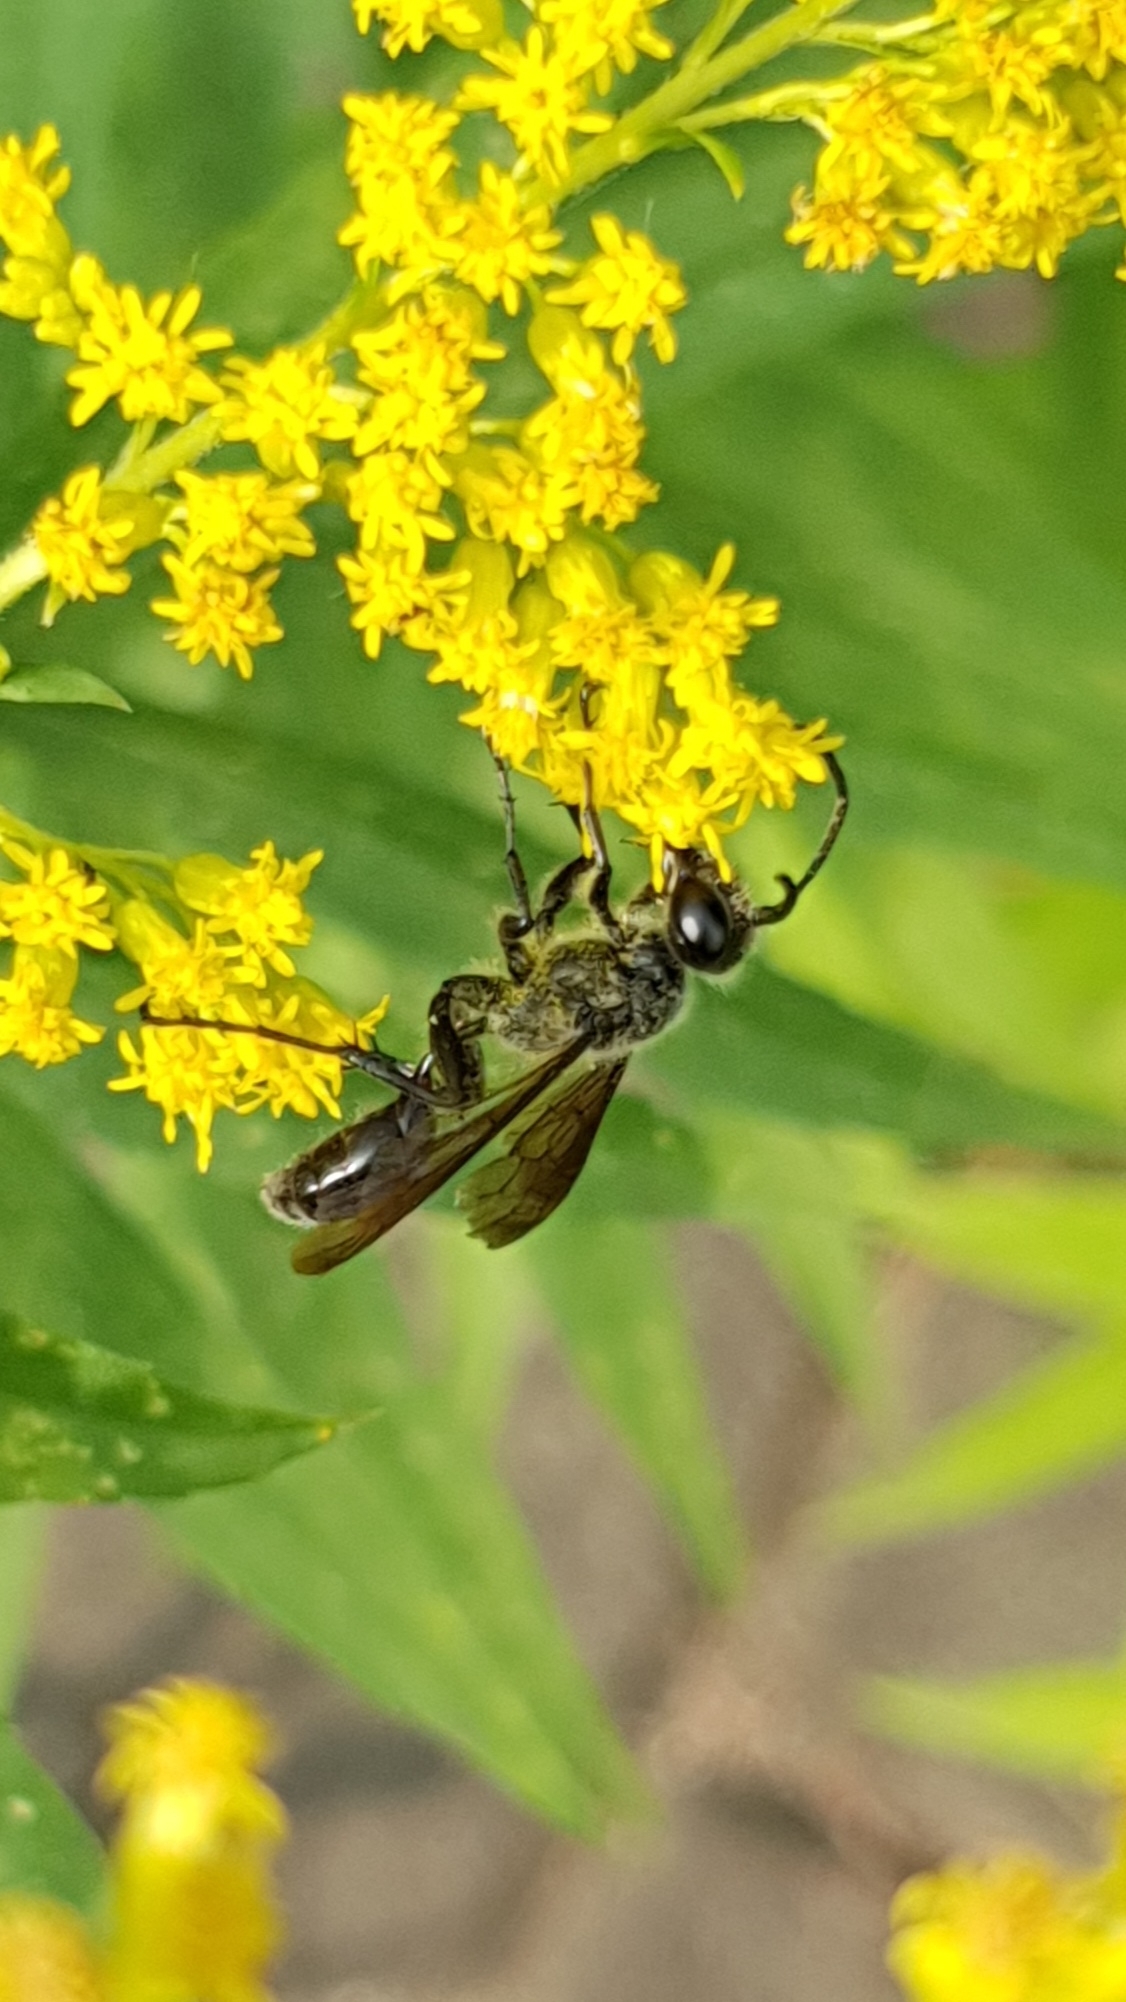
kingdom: Animalia
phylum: Arthropoda
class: Insecta
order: Hymenoptera
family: Sphecidae
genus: Isodontia
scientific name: Isodontia mexicana
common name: Mud dauber
